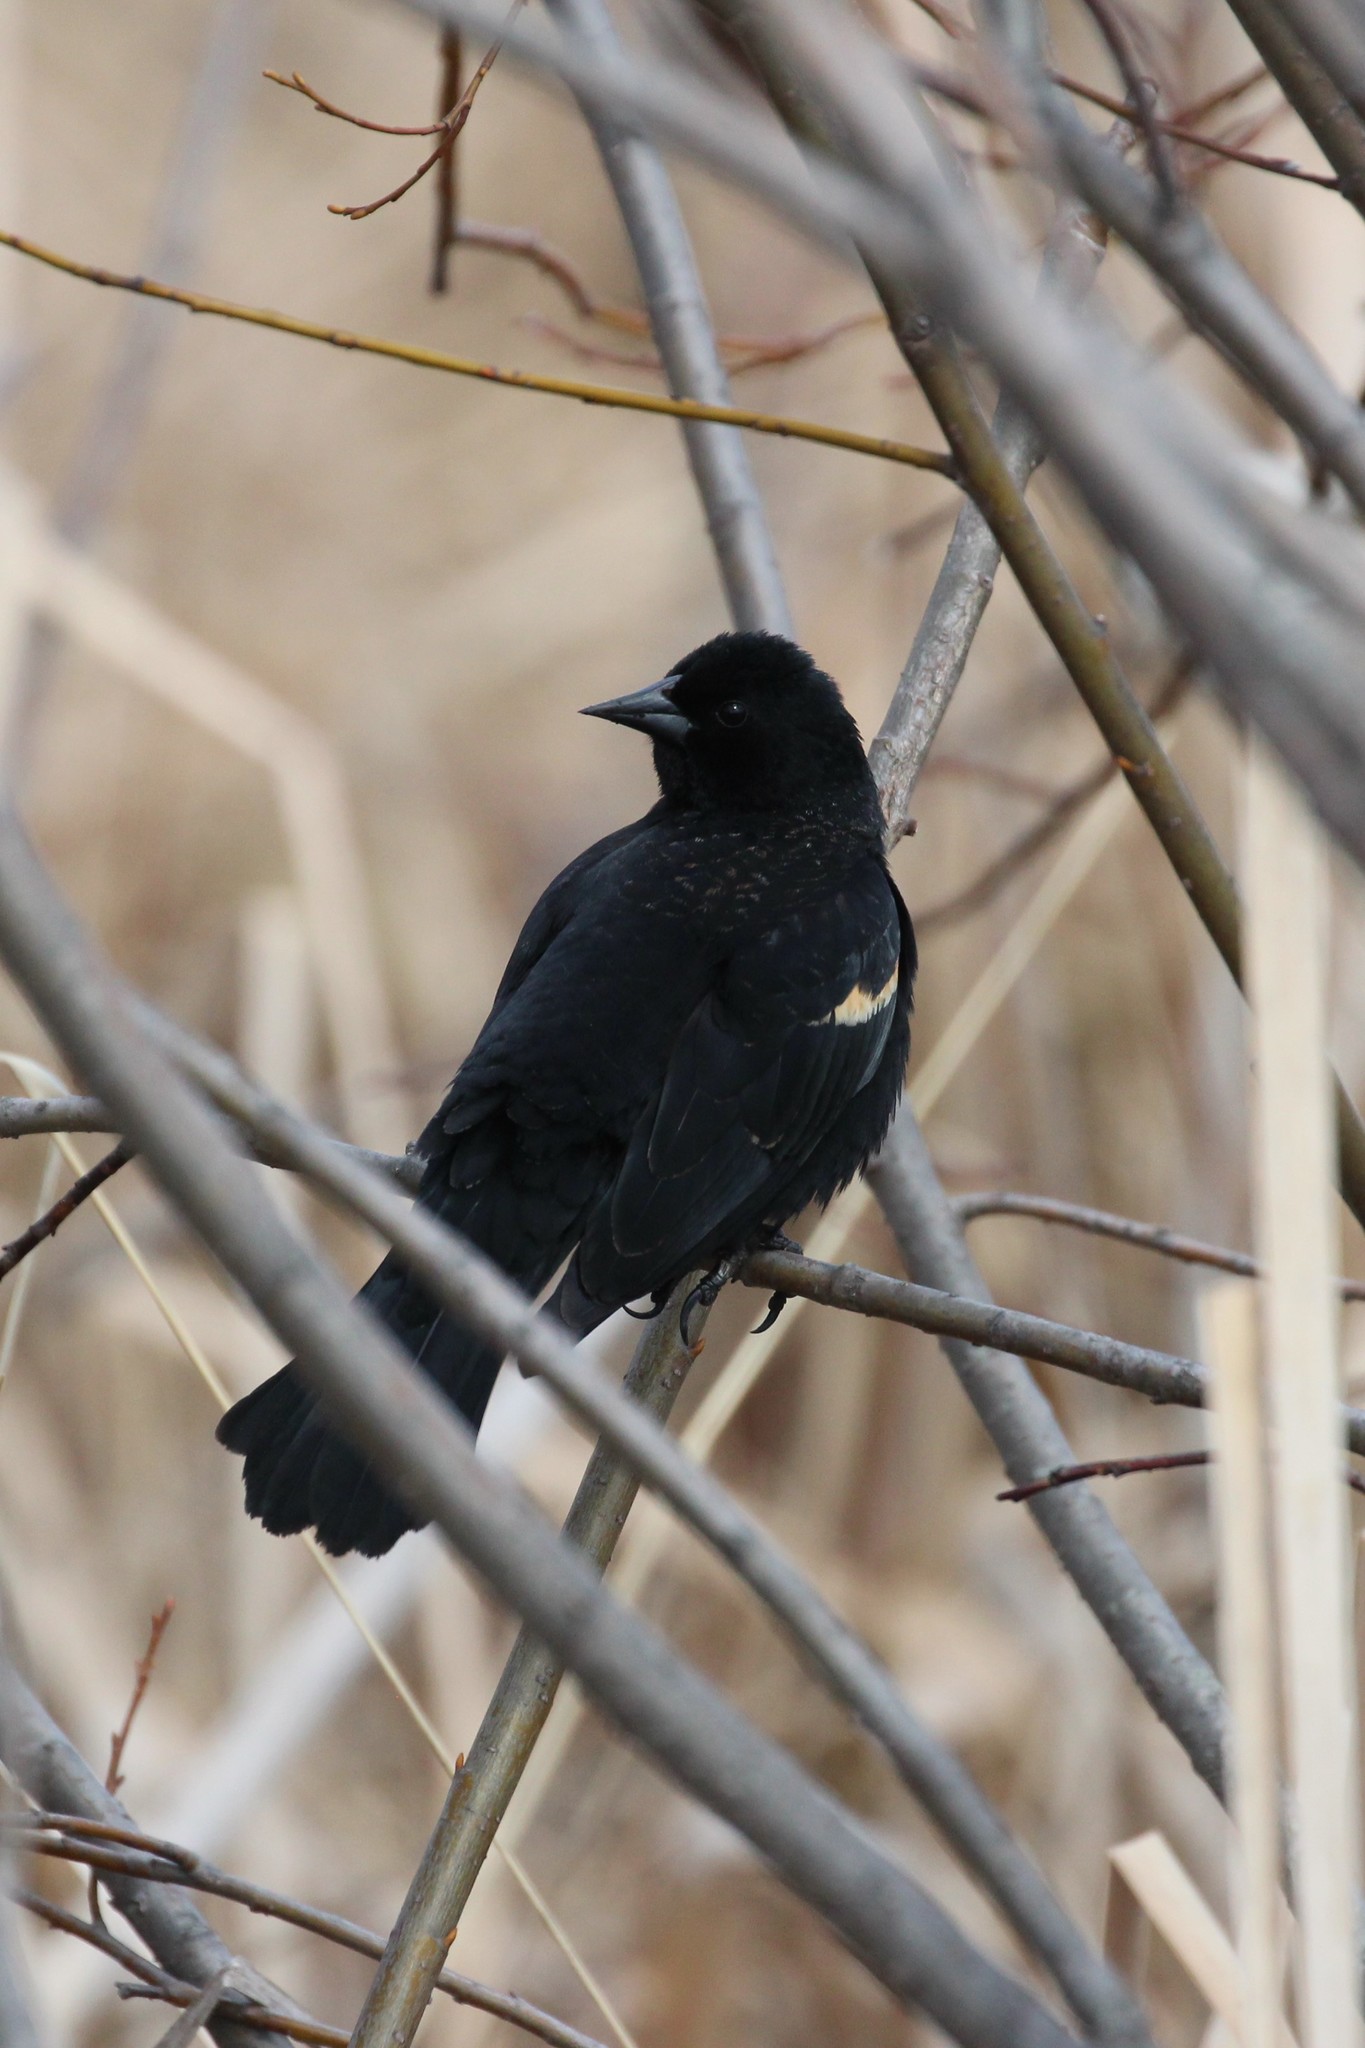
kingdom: Animalia
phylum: Chordata
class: Aves
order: Passeriformes
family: Icteridae
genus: Agelaius
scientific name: Agelaius phoeniceus
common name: Red-winged blackbird
